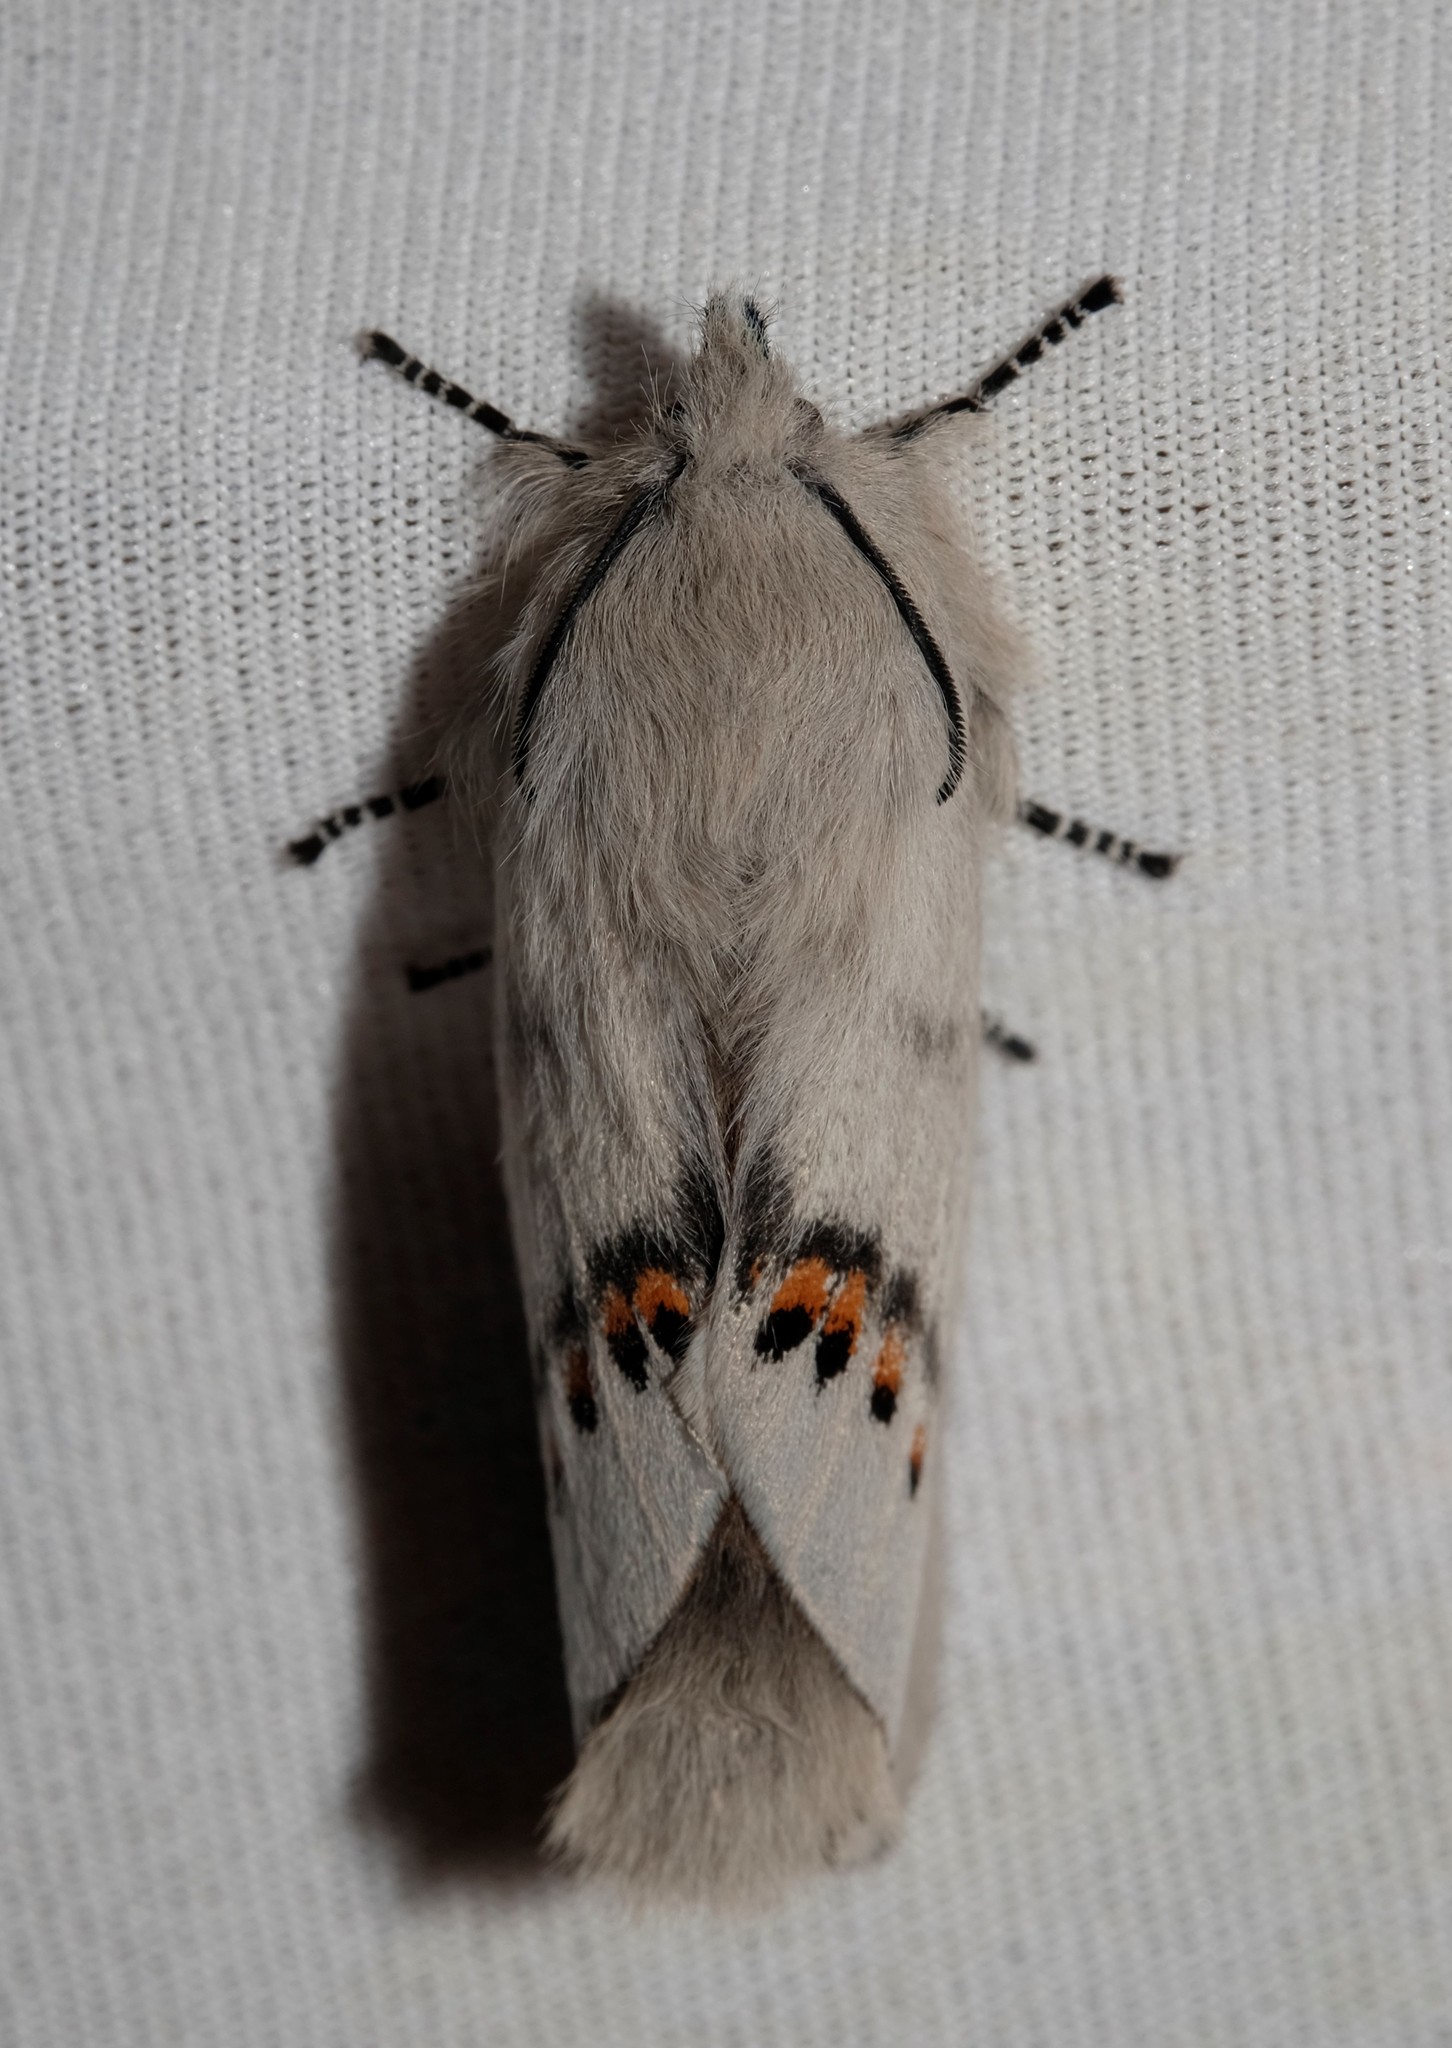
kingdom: Animalia
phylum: Arthropoda
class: Insecta
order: Lepidoptera
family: Lasiocampidae
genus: Pinara
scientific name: Pinara obliqua
